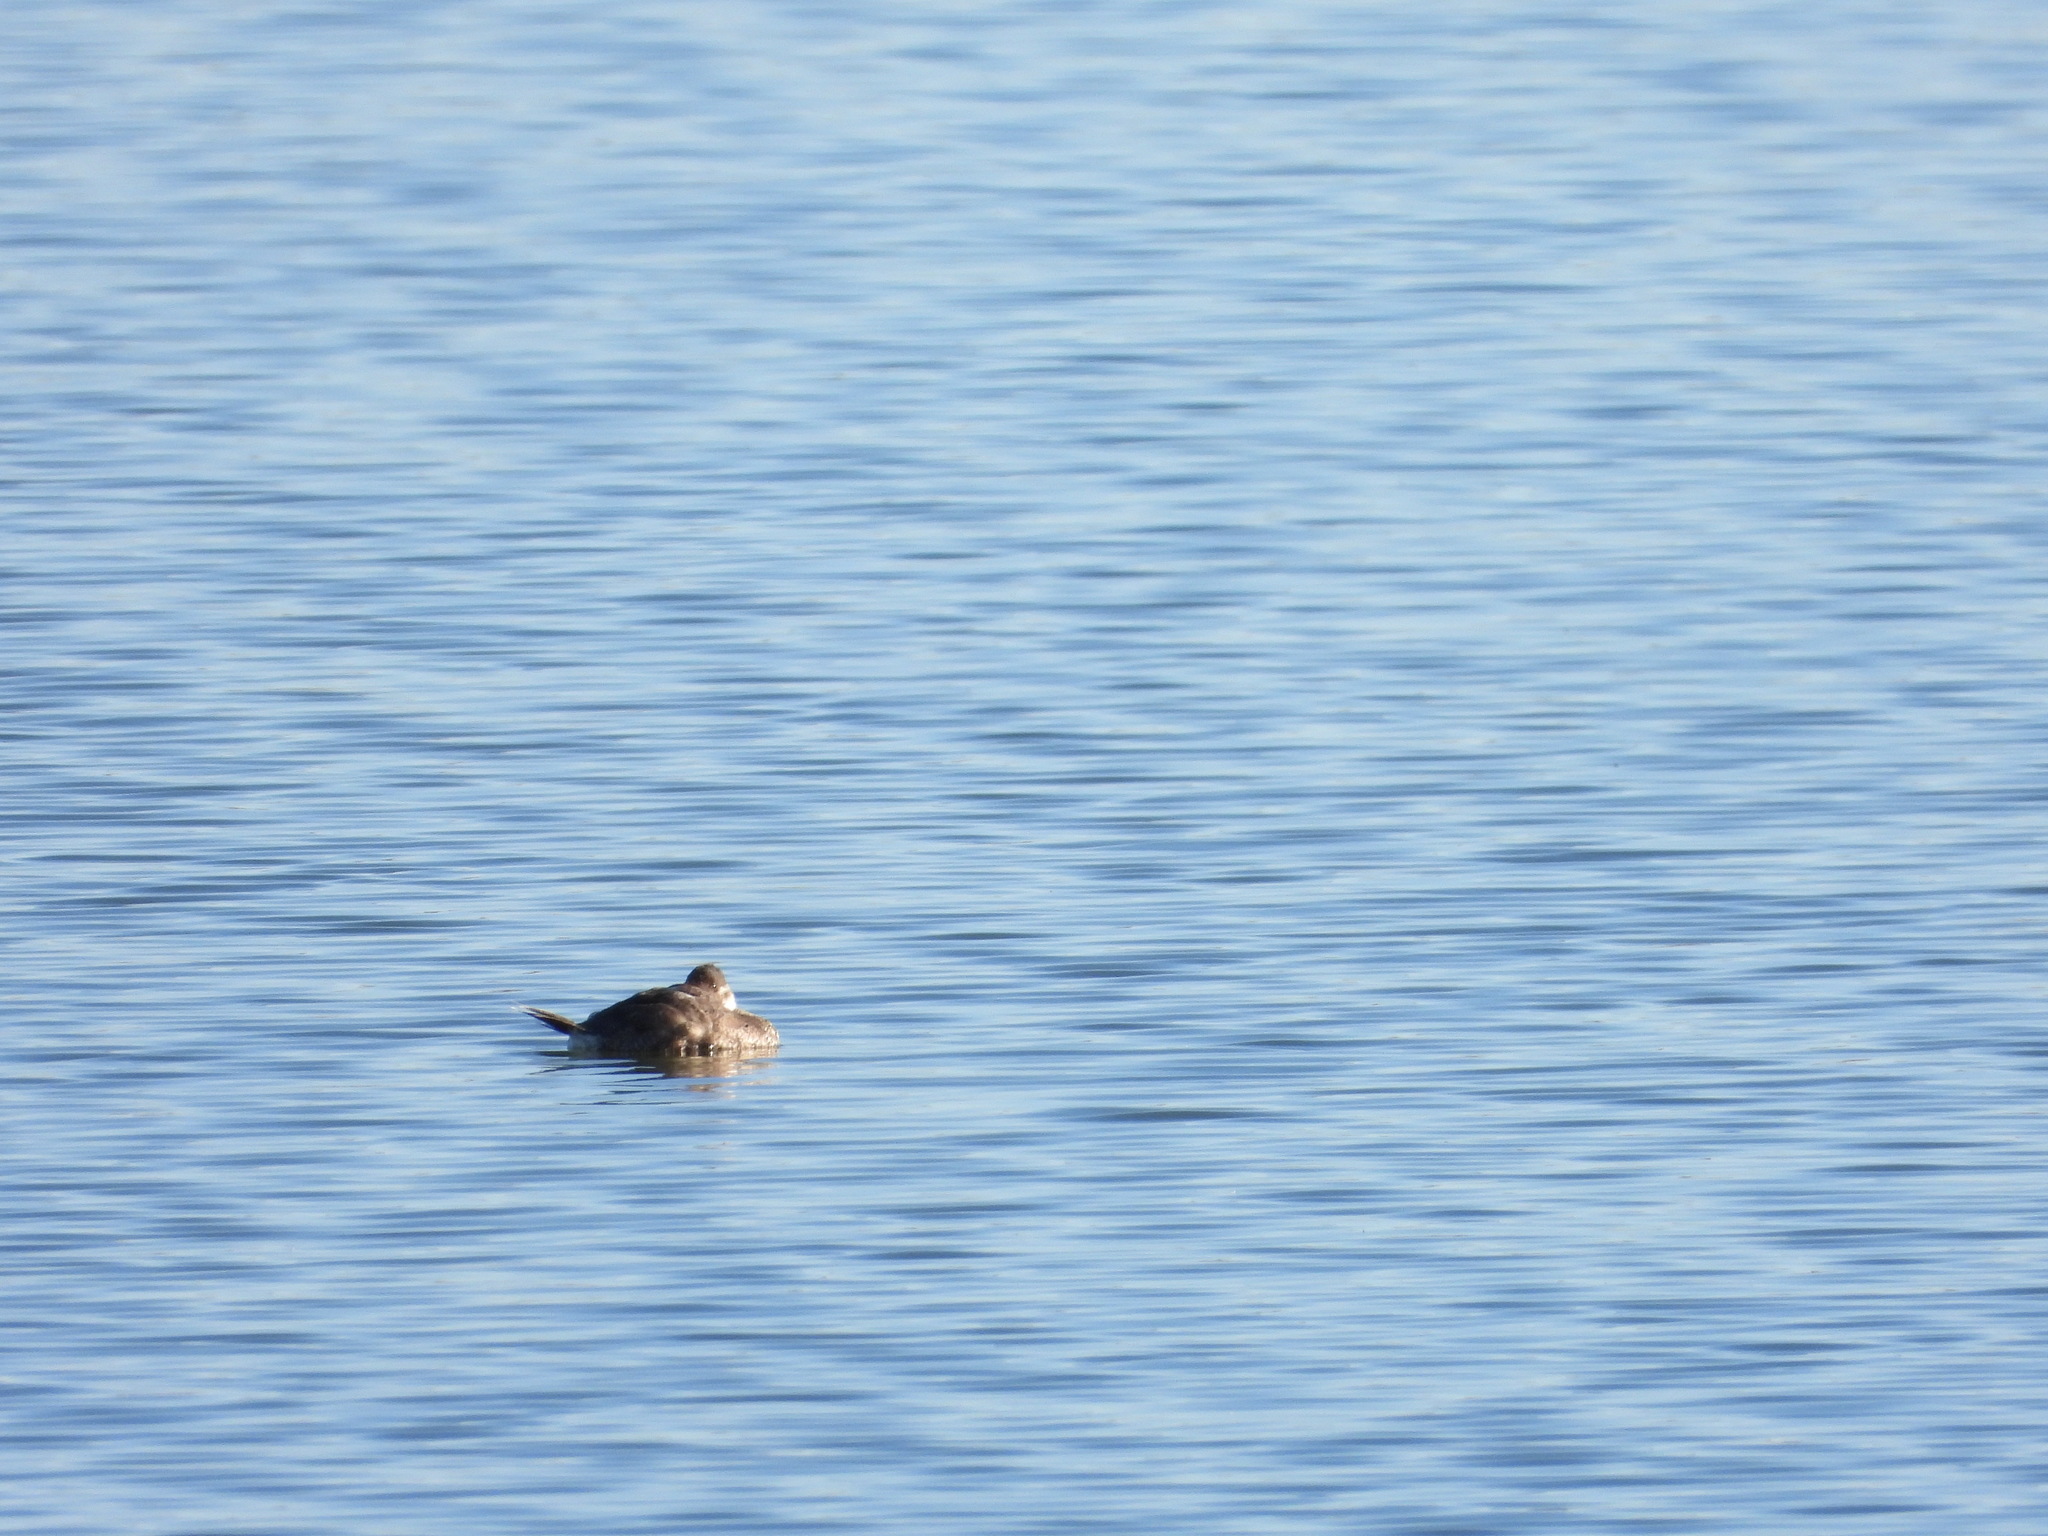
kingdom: Animalia
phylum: Chordata
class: Aves
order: Anseriformes
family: Anatidae
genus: Oxyura
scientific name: Oxyura jamaicensis
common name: Ruddy duck
